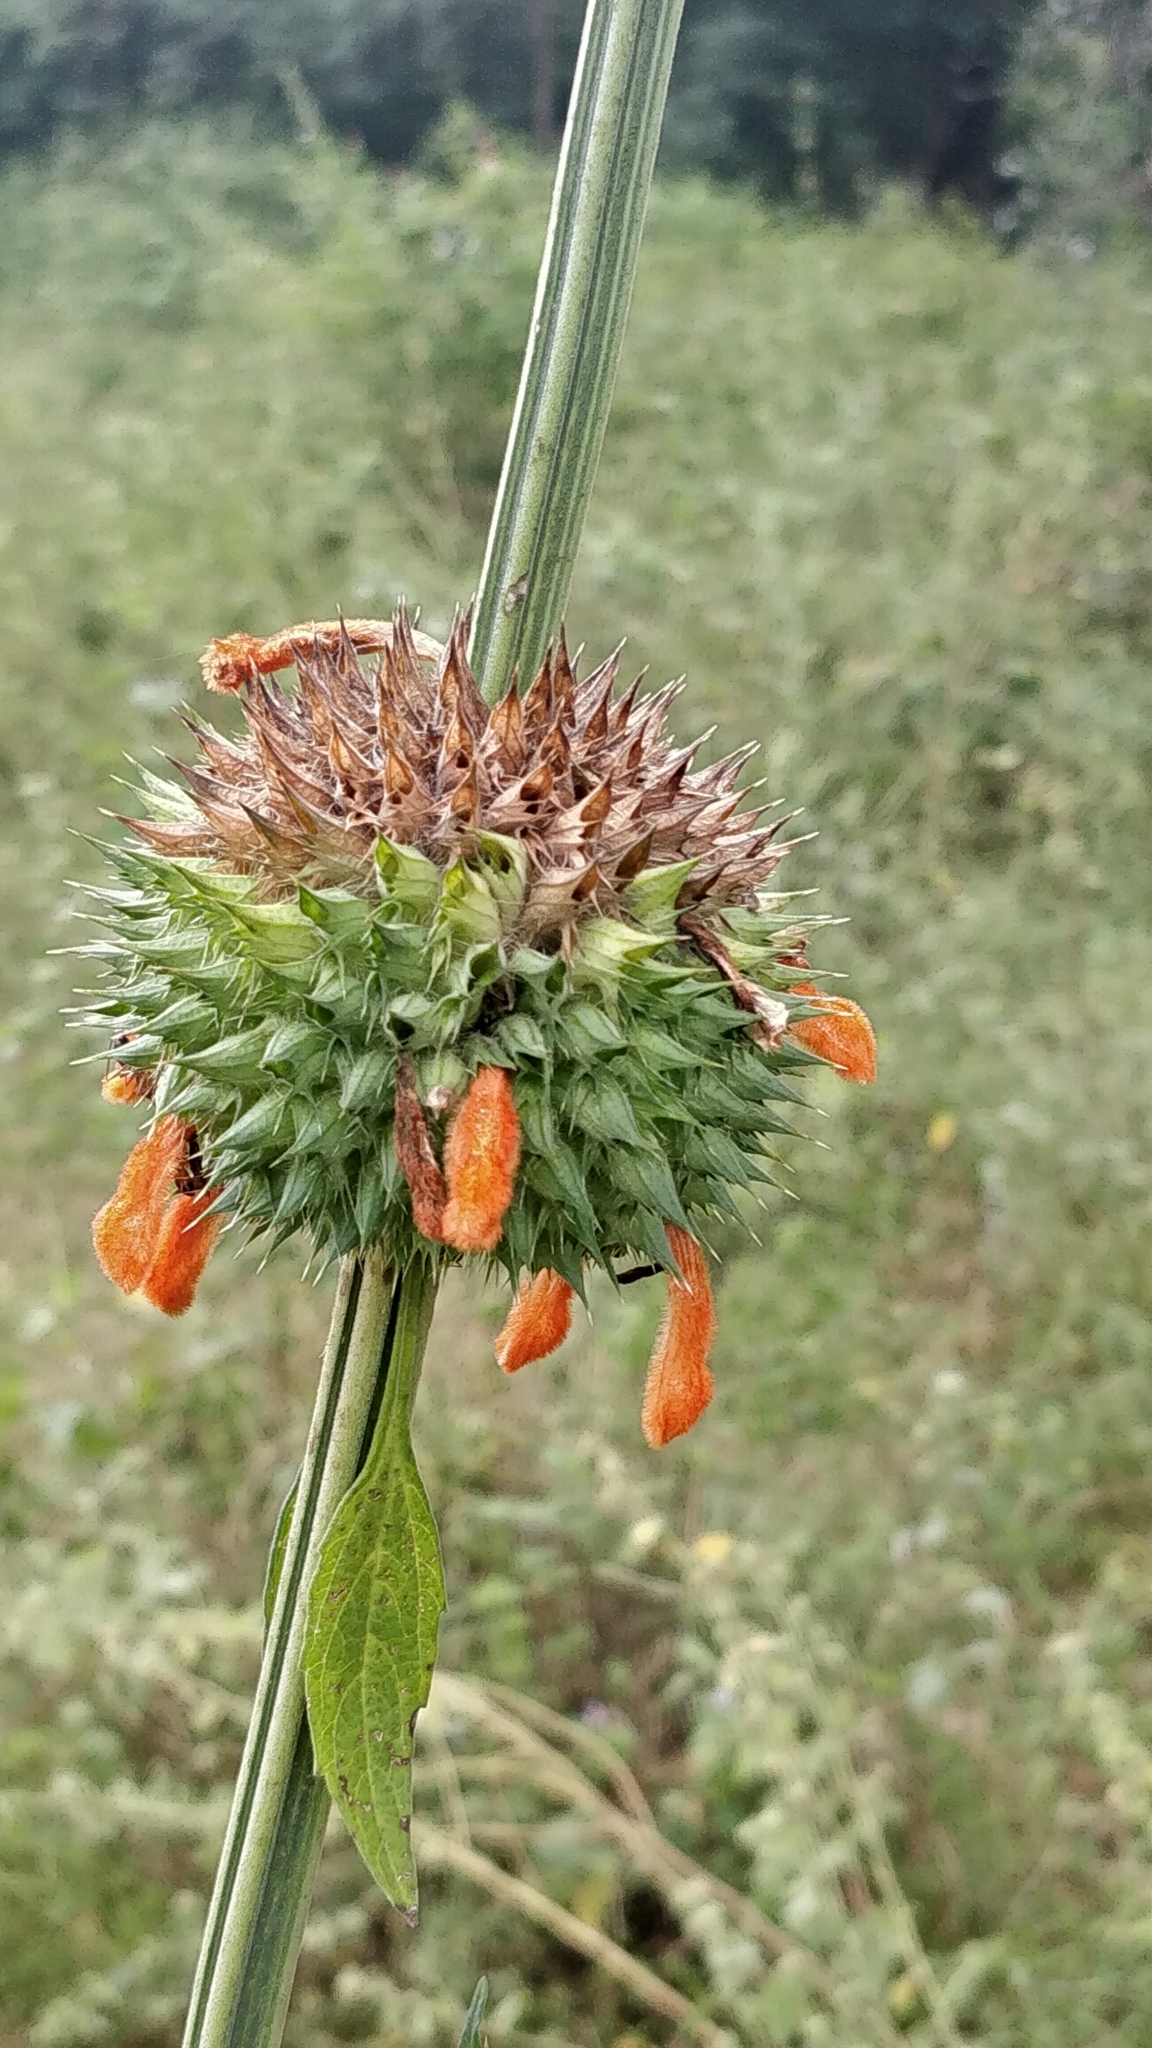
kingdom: Plantae
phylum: Tracheophyta
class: Magnoliopsida
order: Lamiales
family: Lamiaceae
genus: Leonotis
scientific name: Leonotis nepetifolia
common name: Christmas candlestick
